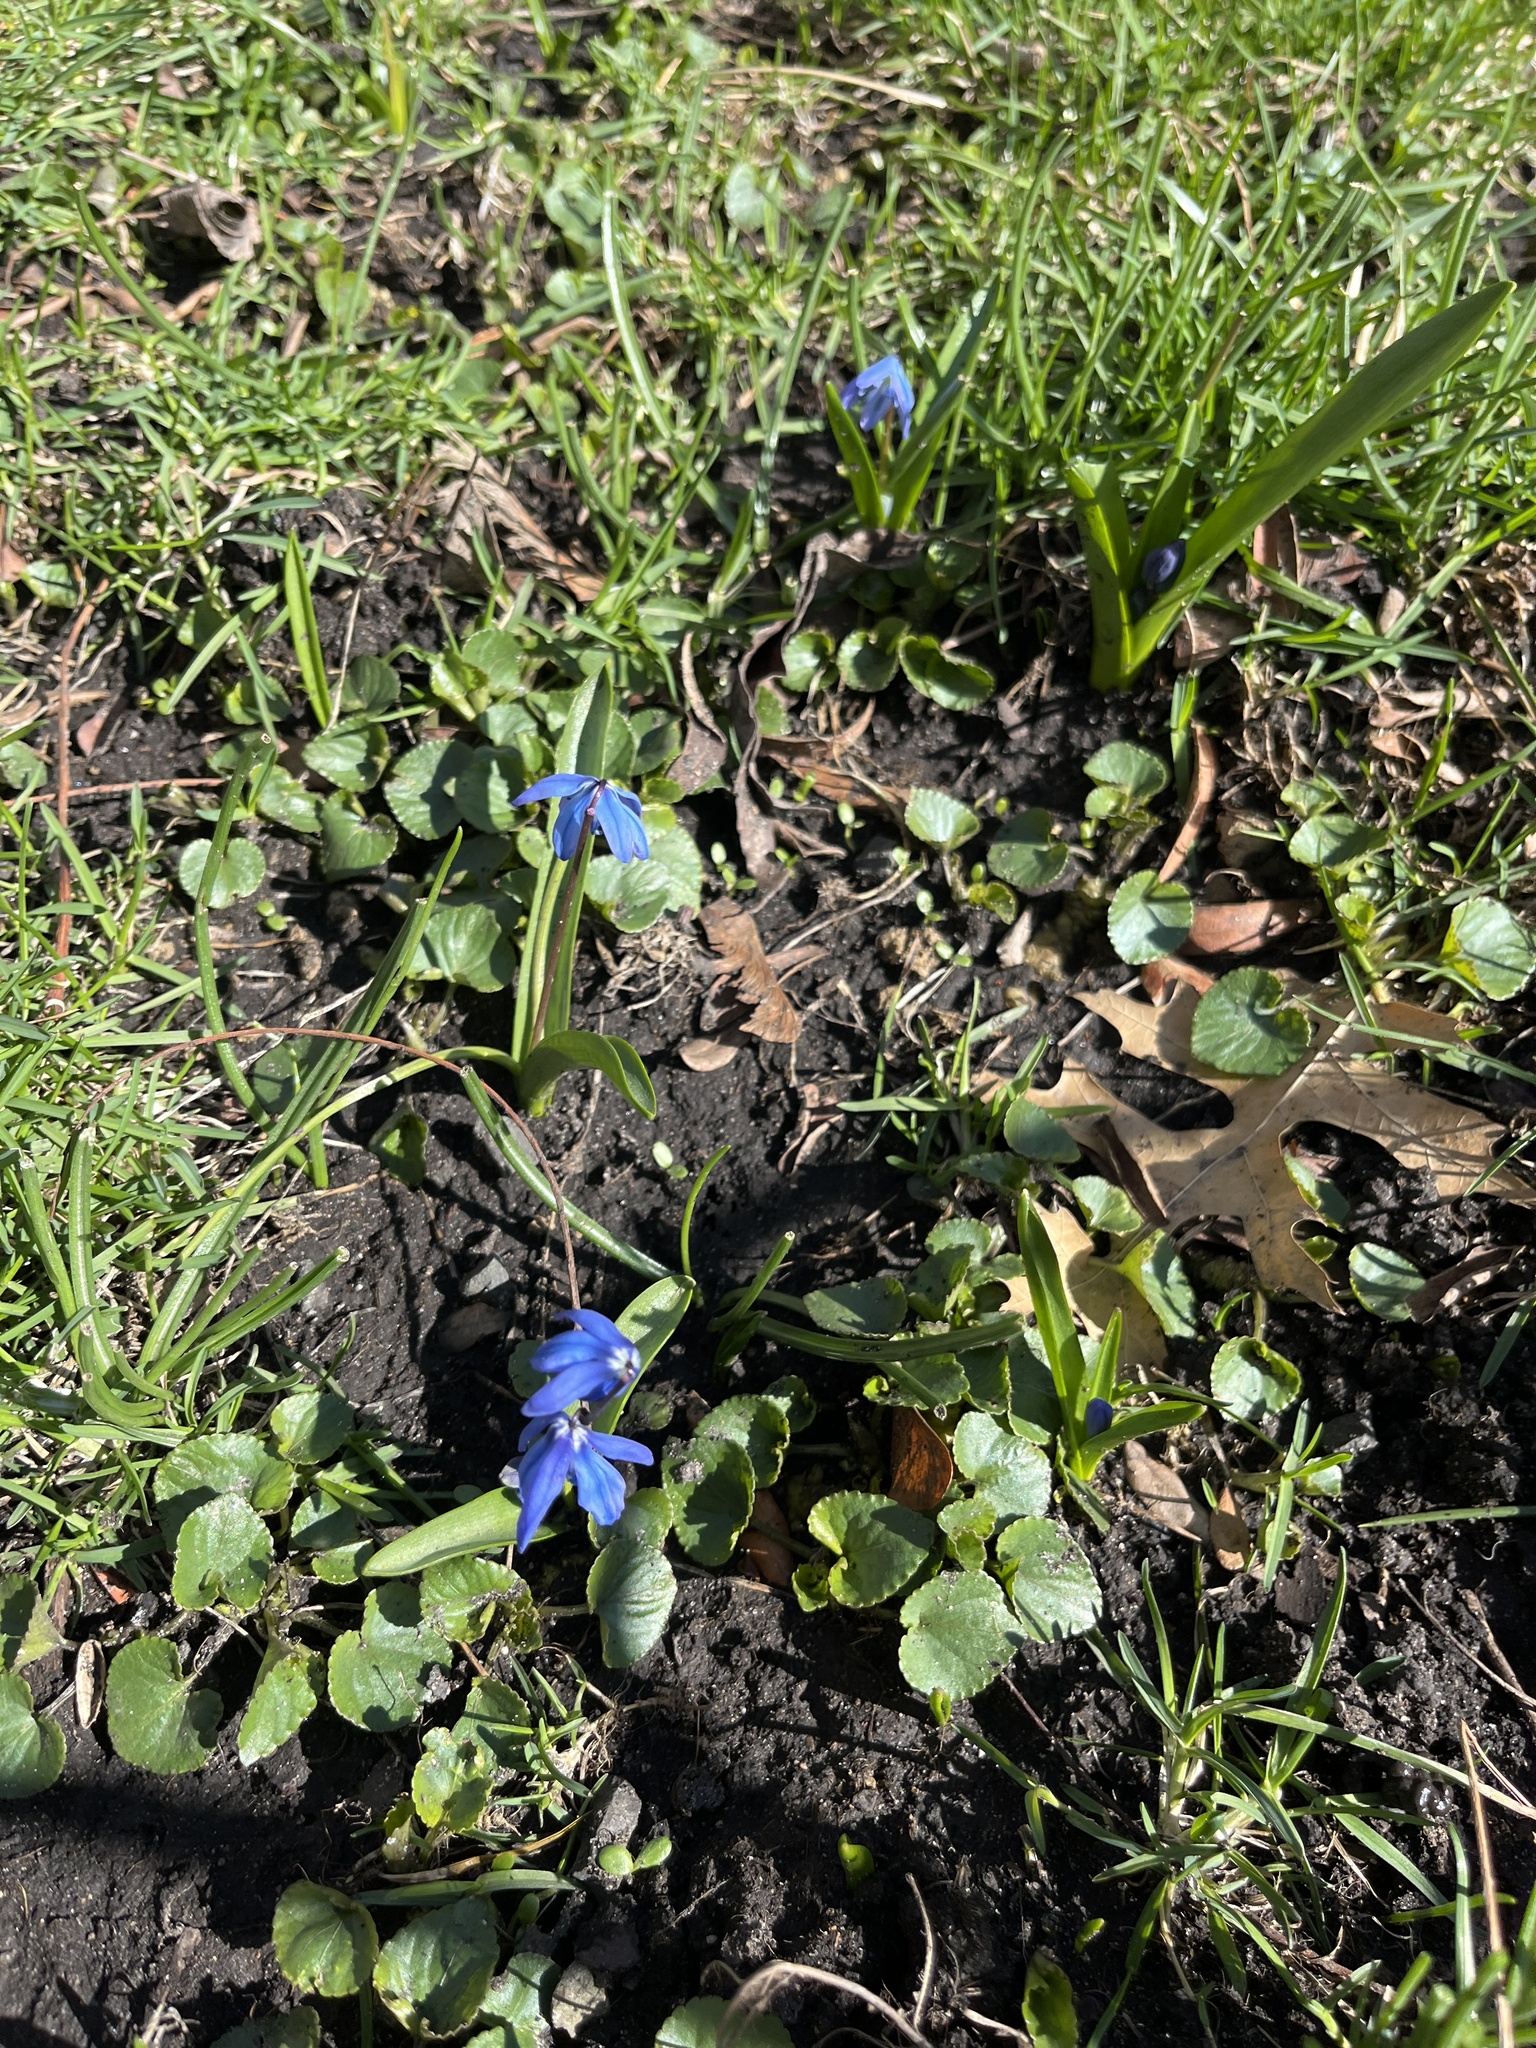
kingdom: Plantae
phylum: Tracheophyta
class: Liliopsida
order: Asparagales
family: Asparagaceae
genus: Scilla
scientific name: Scilla siberica
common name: Siberian squill
